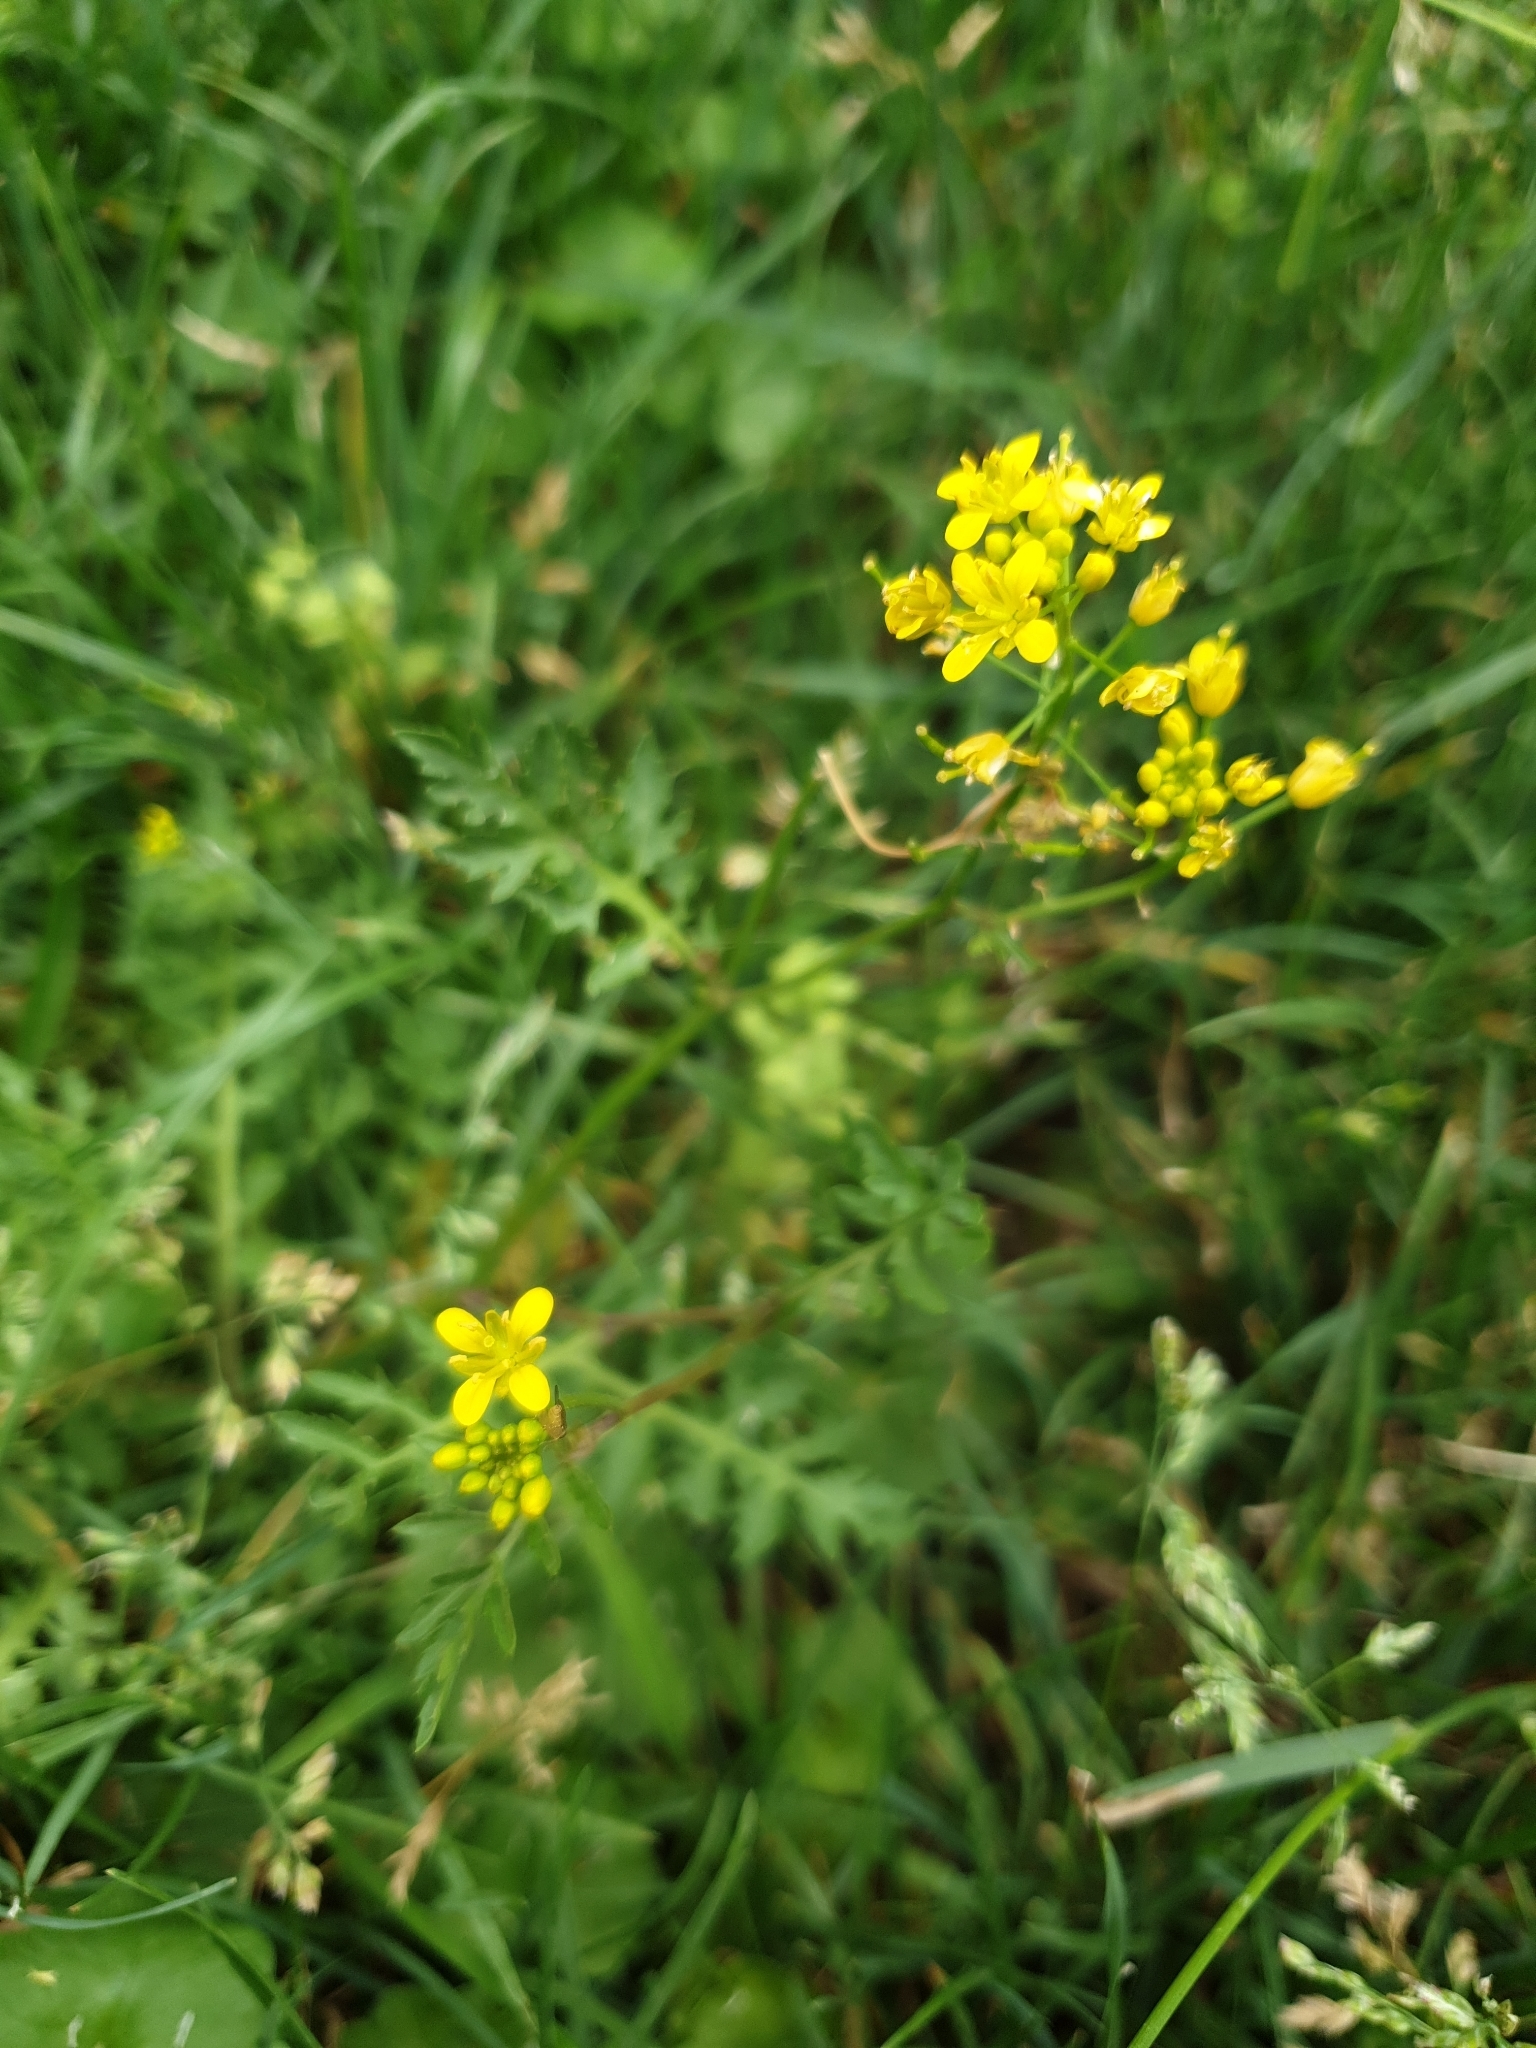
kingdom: Plantae
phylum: Tracheophyta
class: Magnoliopsida
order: Brassicales
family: Brassicaceae
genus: Rorippa
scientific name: Rorippa sylvestris
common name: Creeping yellowcress
